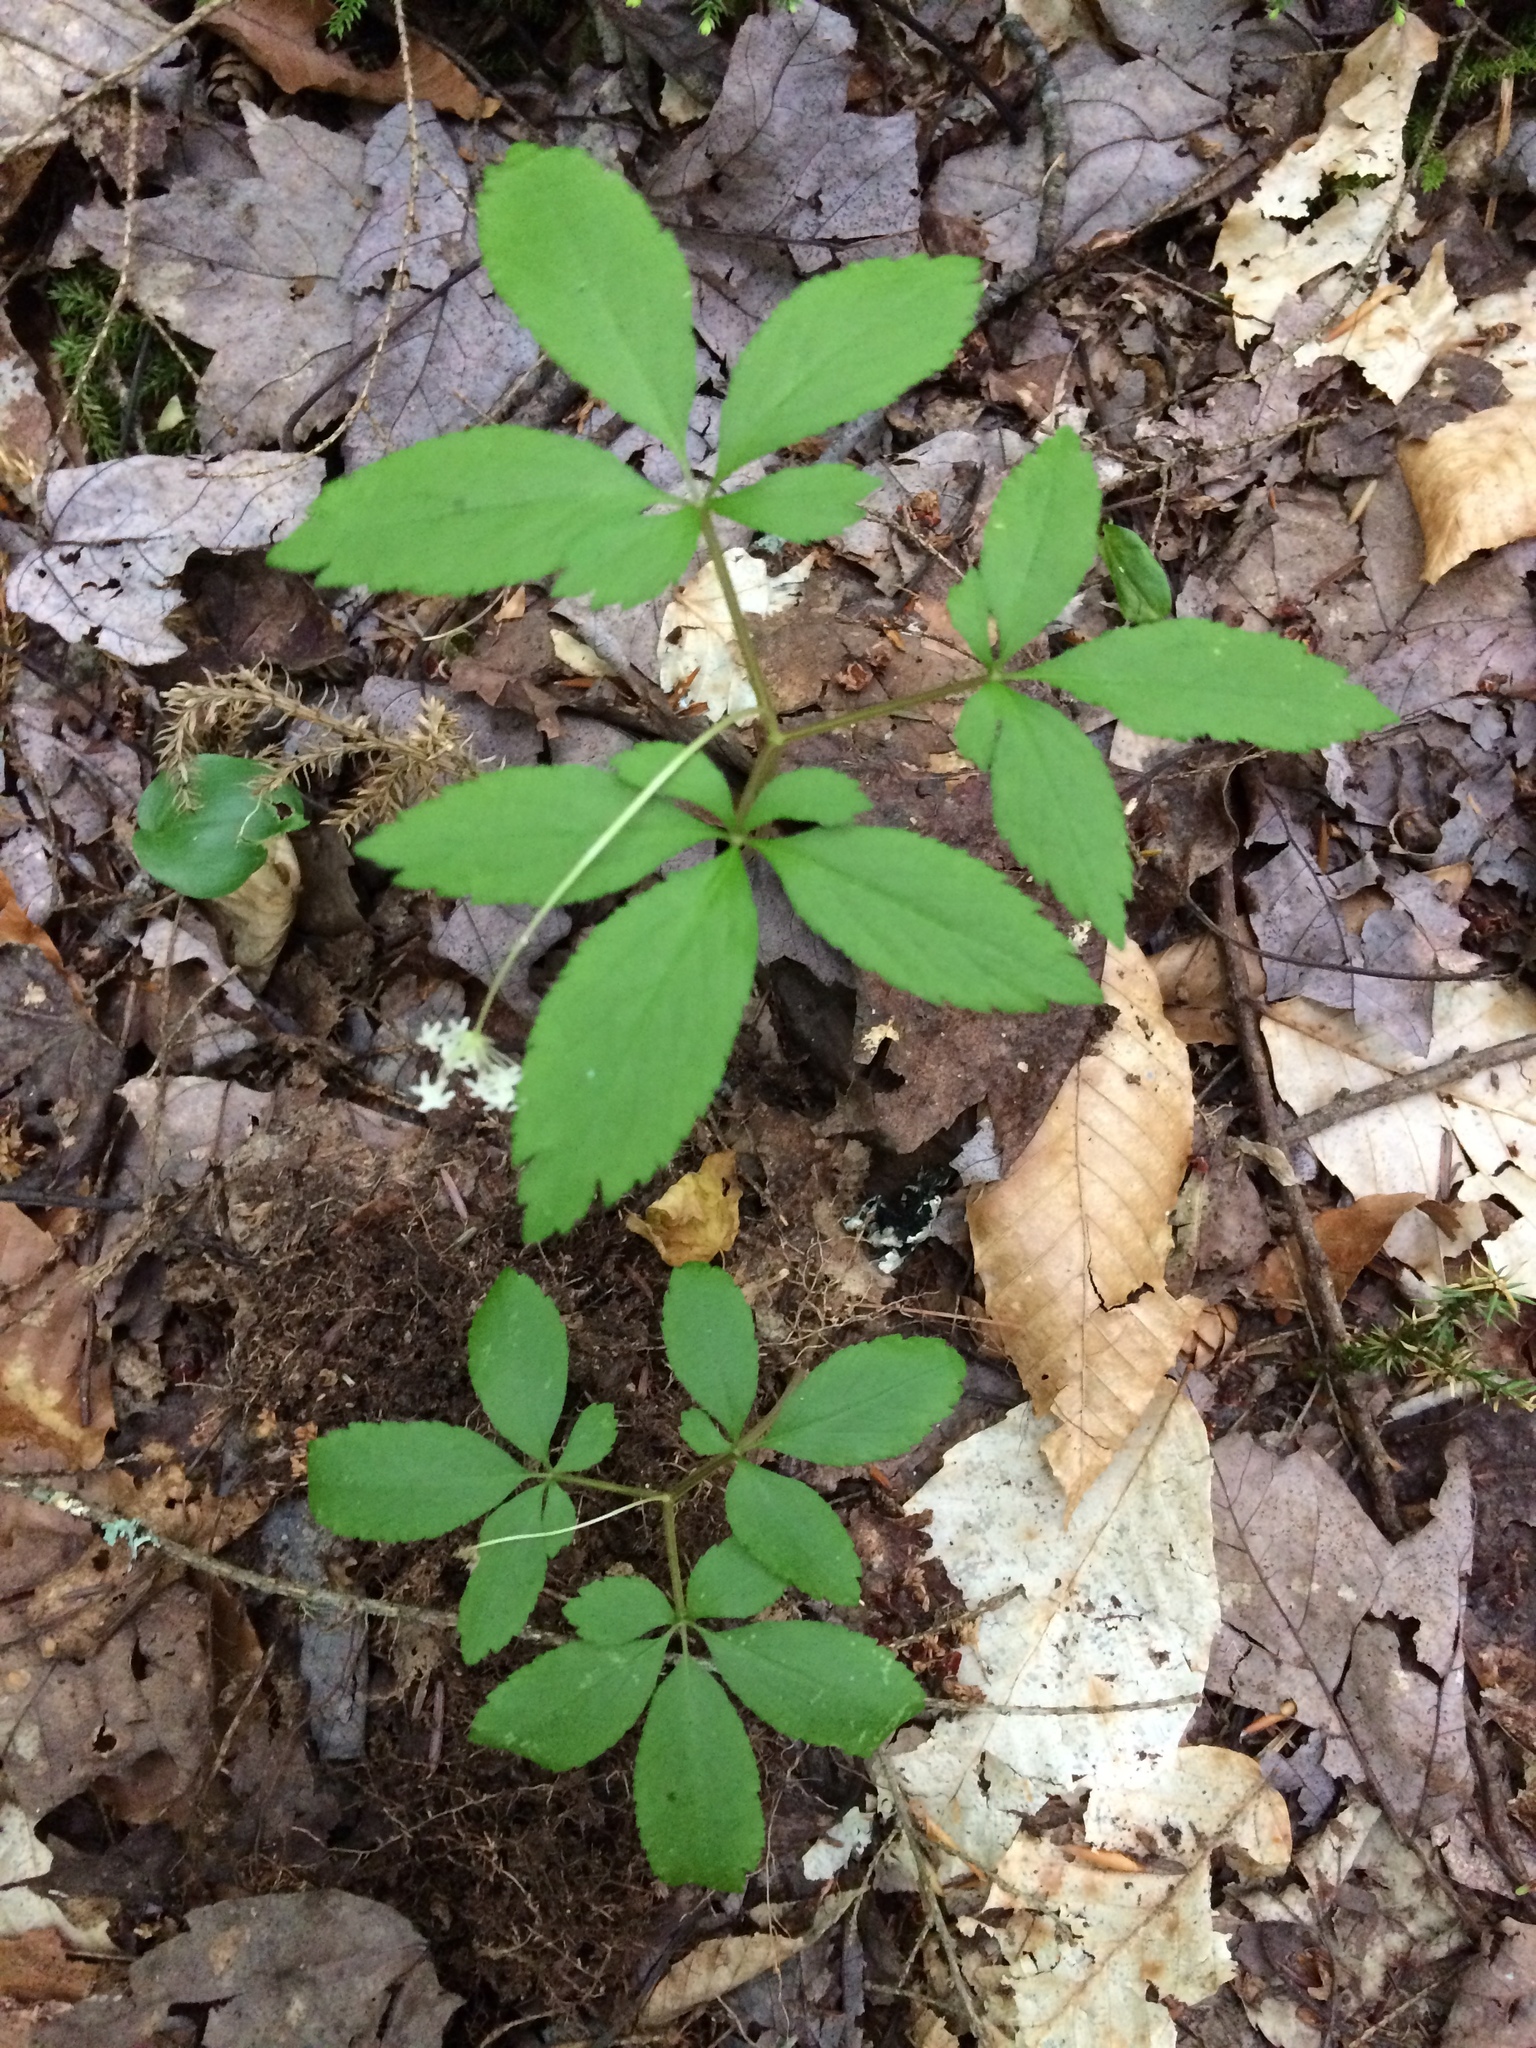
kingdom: Plantae
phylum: Tracheophyta
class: Magnoliopsida
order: Apiales
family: Araliaceae
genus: Panax
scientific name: Panax trifolius
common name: Dwarf ginseng
